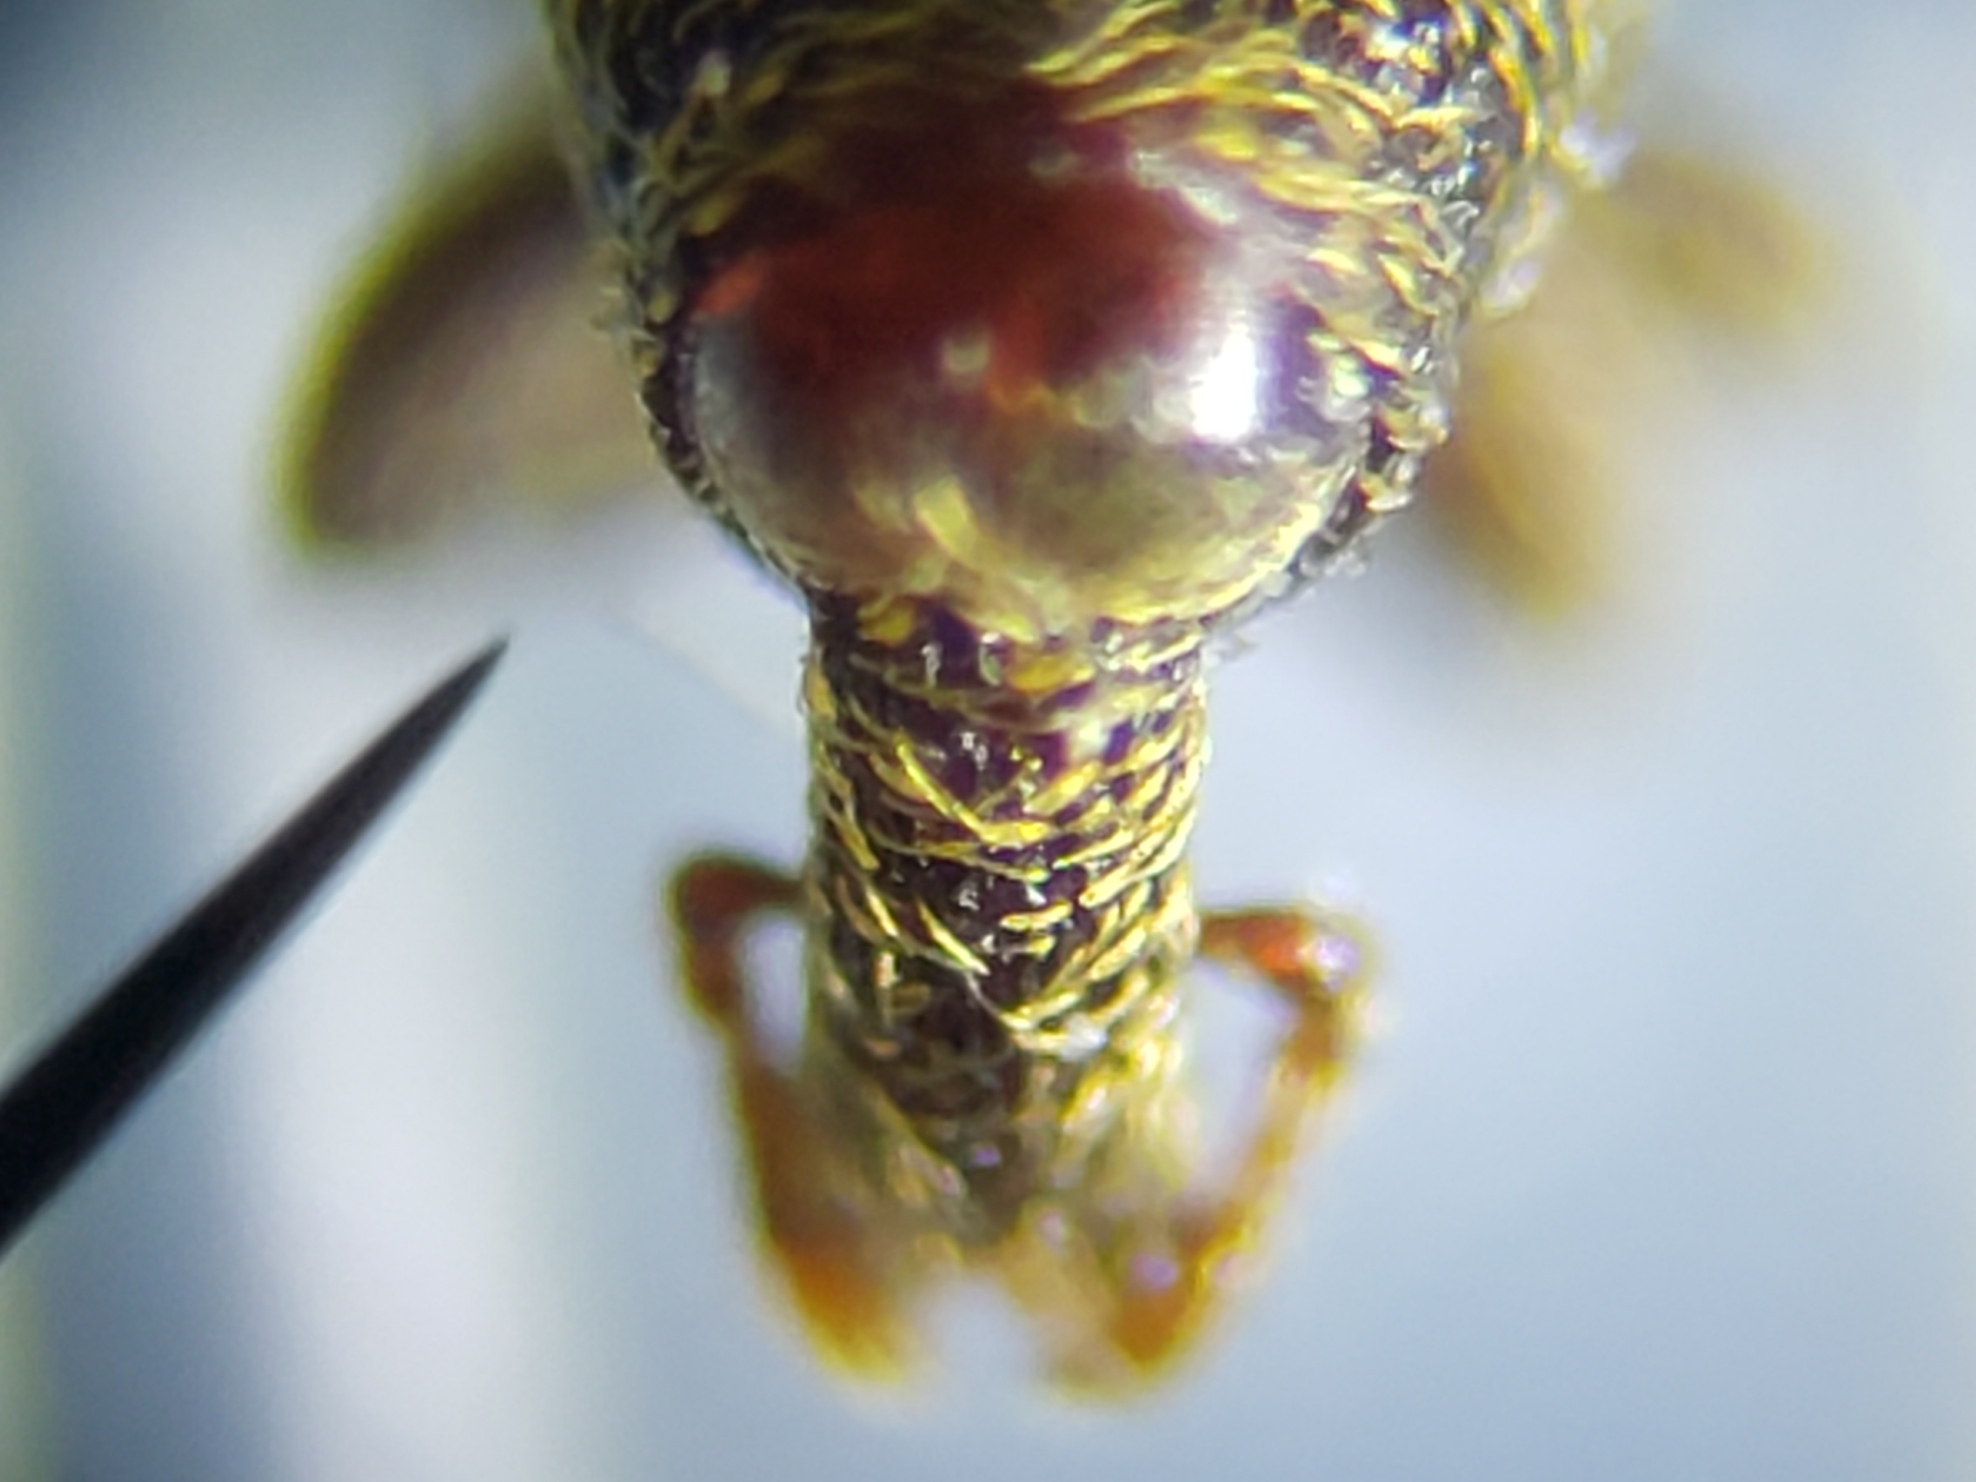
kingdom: Animalia
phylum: Arthropoda
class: Insecta
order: Coleoptera
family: Curculionidae
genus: Himatium
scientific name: Himatium errans
